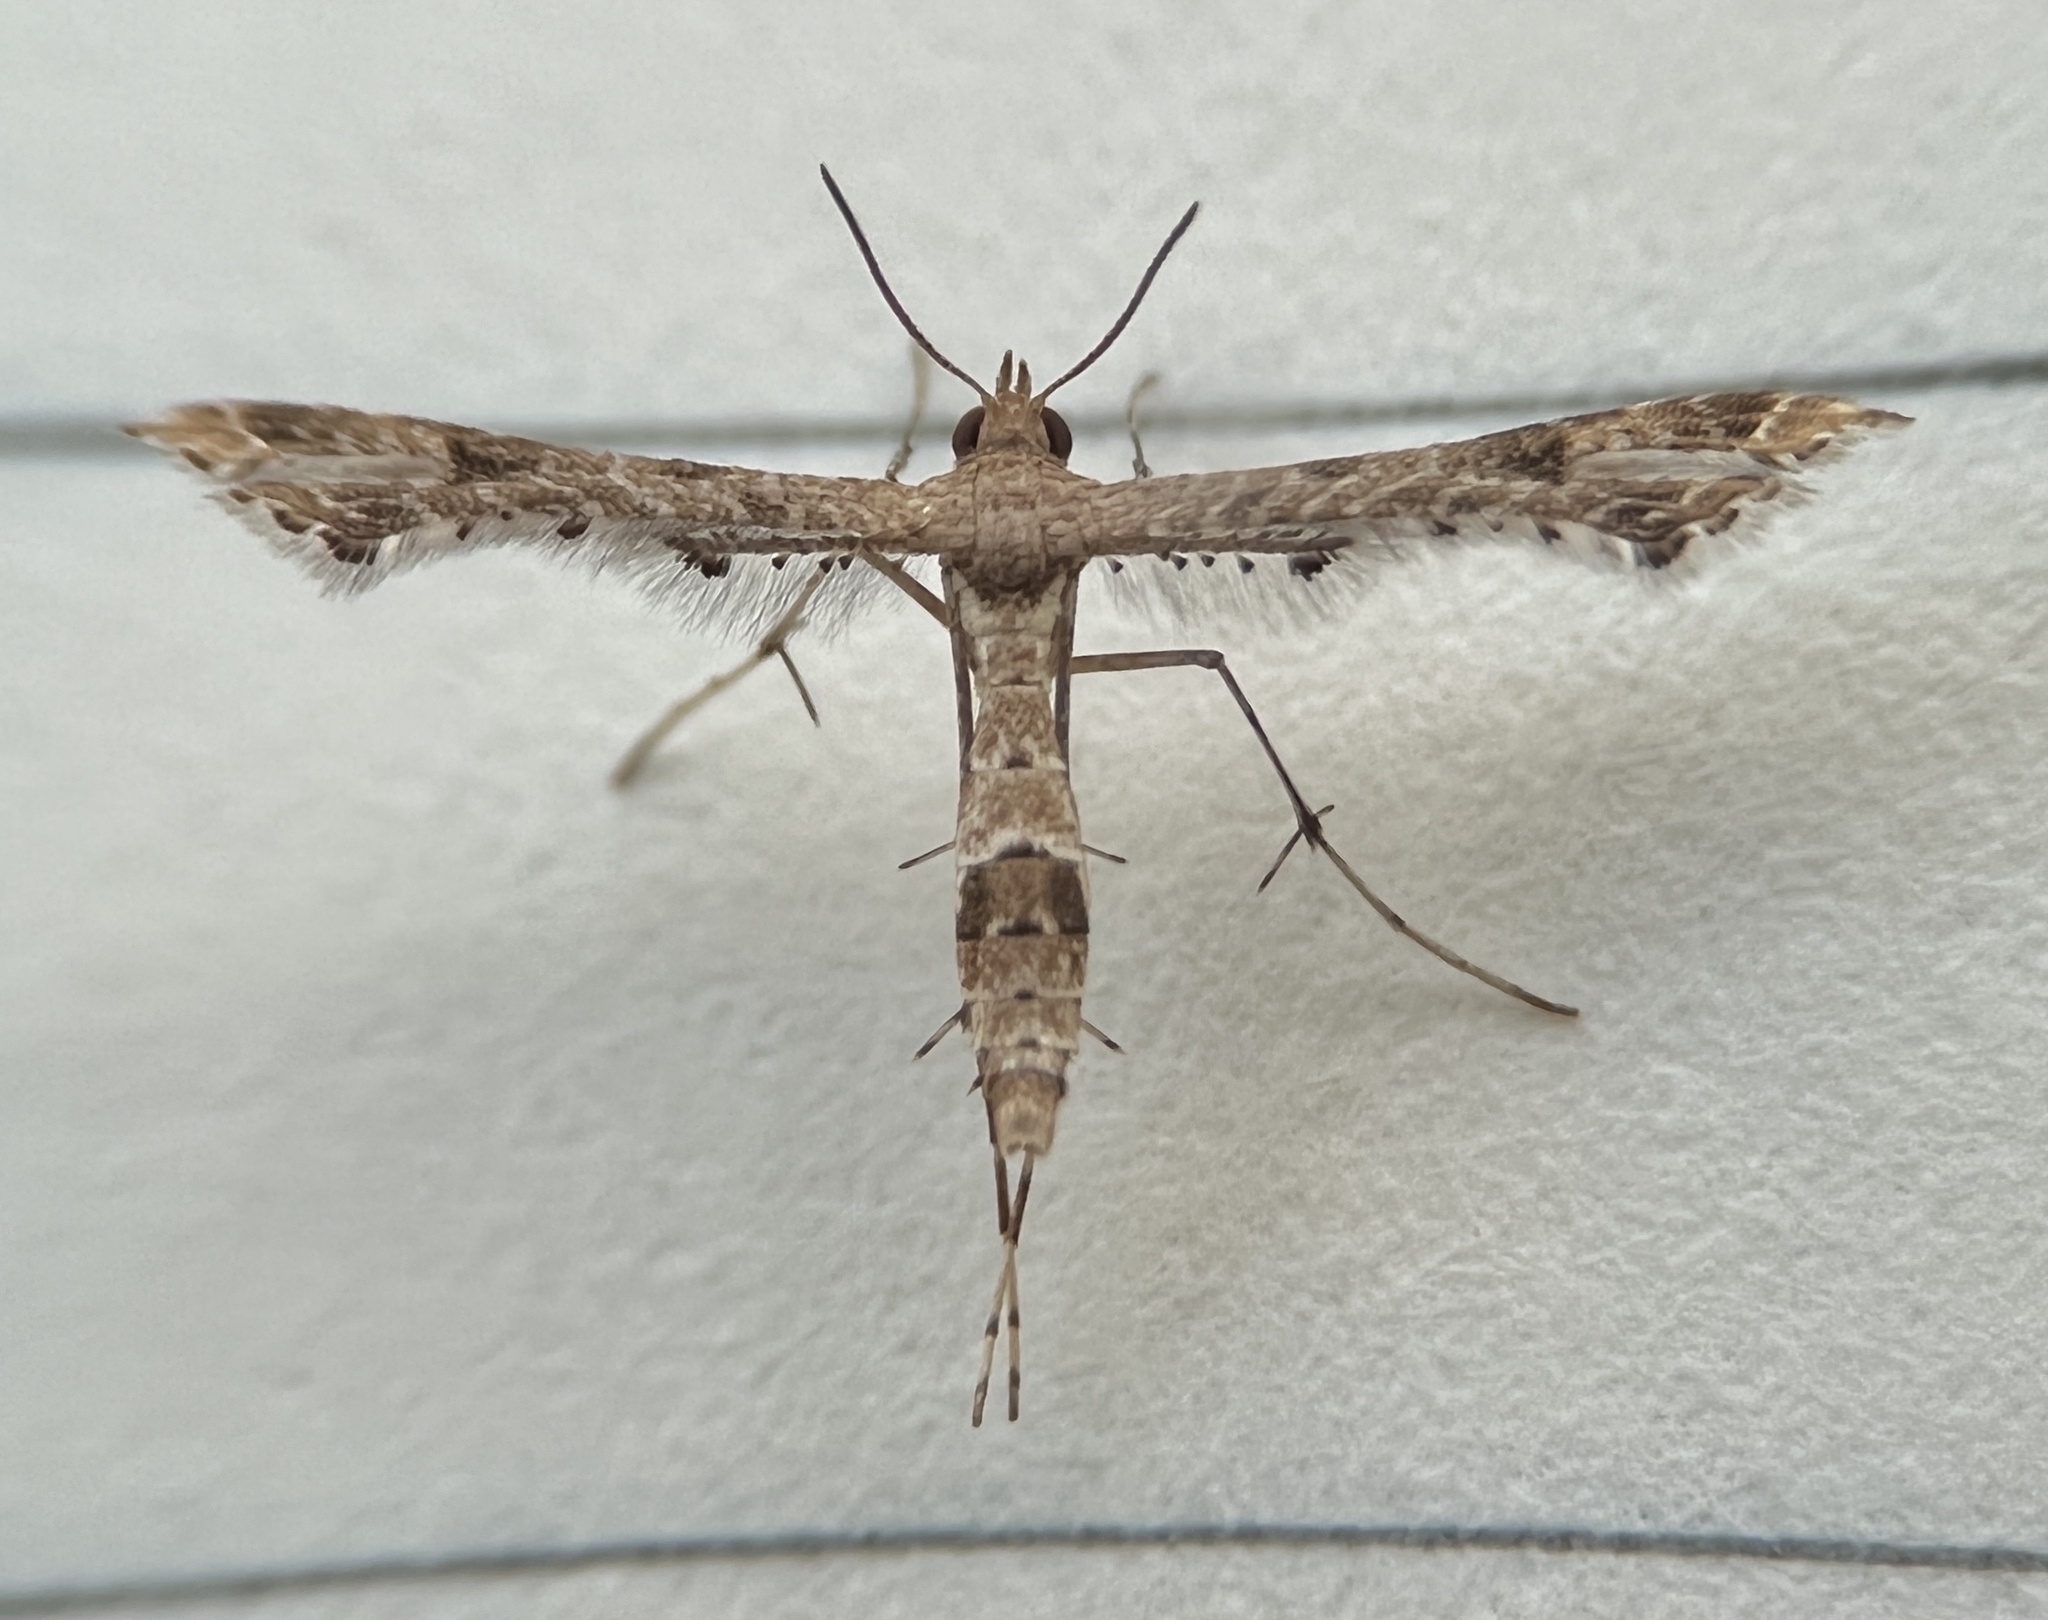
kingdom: Animalia
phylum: Arthropoda
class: Insecta
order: Lepidoptera
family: Pterophoridae
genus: Lantanophaga
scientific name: Lantanophaga pusillidactylus
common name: Moth
